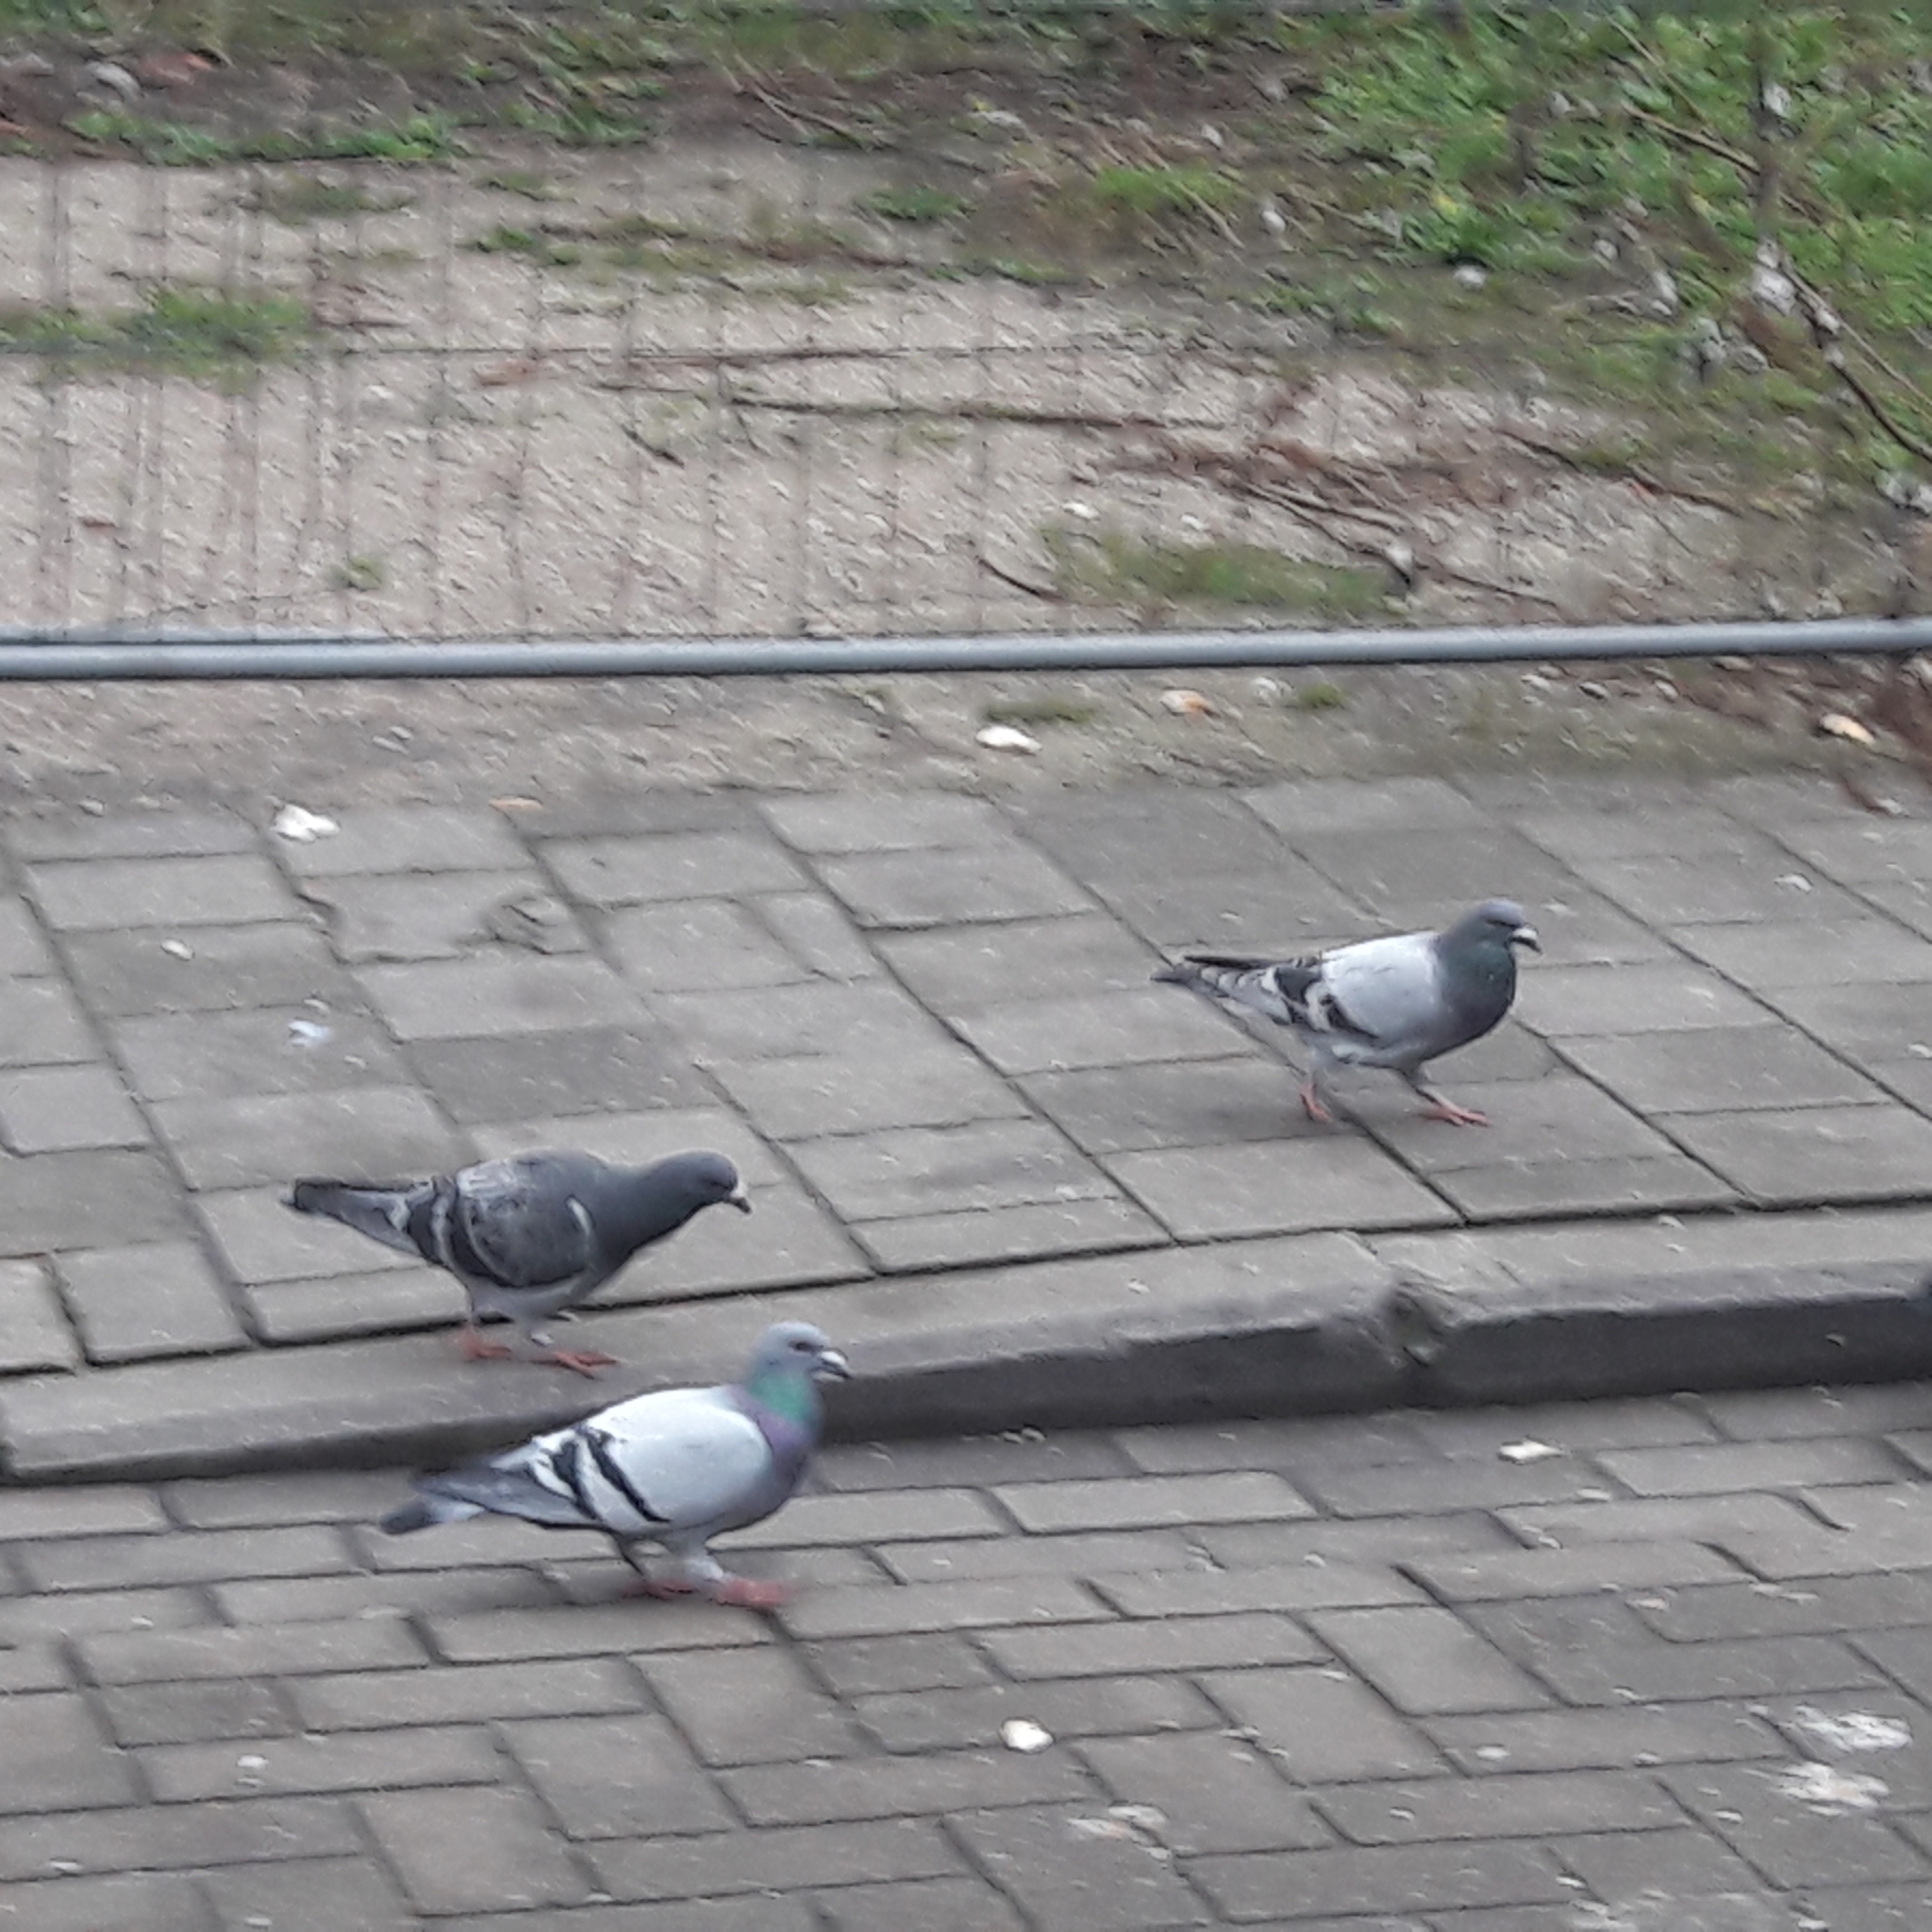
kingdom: Animalia
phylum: Chordata
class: Aves
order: Columbiformes
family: Columbidae
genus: Columba
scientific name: Columba livia
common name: Rock pigeon
